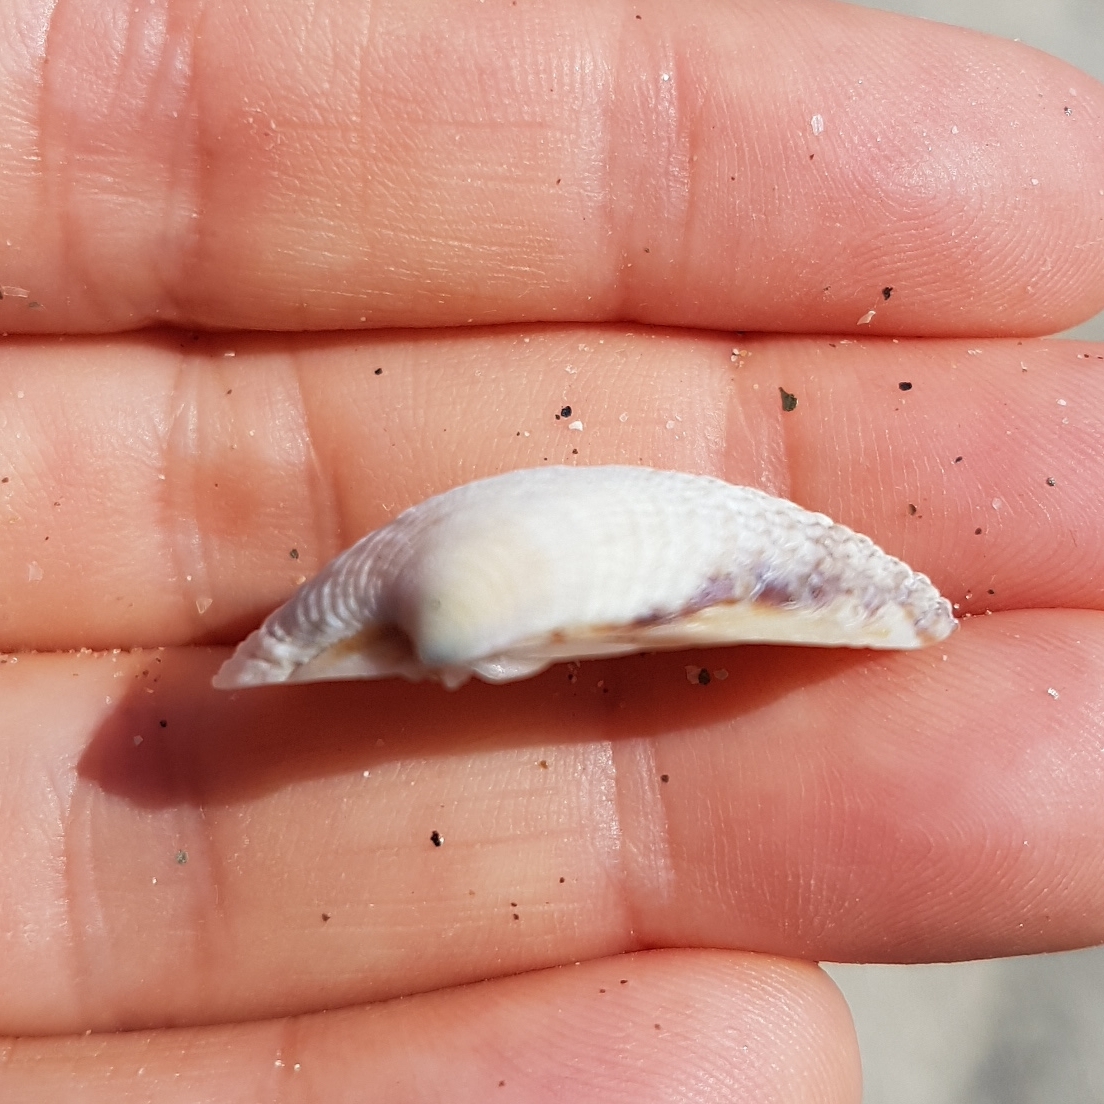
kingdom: Animalia
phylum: Mollusca
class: Bivalvia
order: Venerida
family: Veneridae
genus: Venus
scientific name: Venus verrucosa
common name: Warty venus
